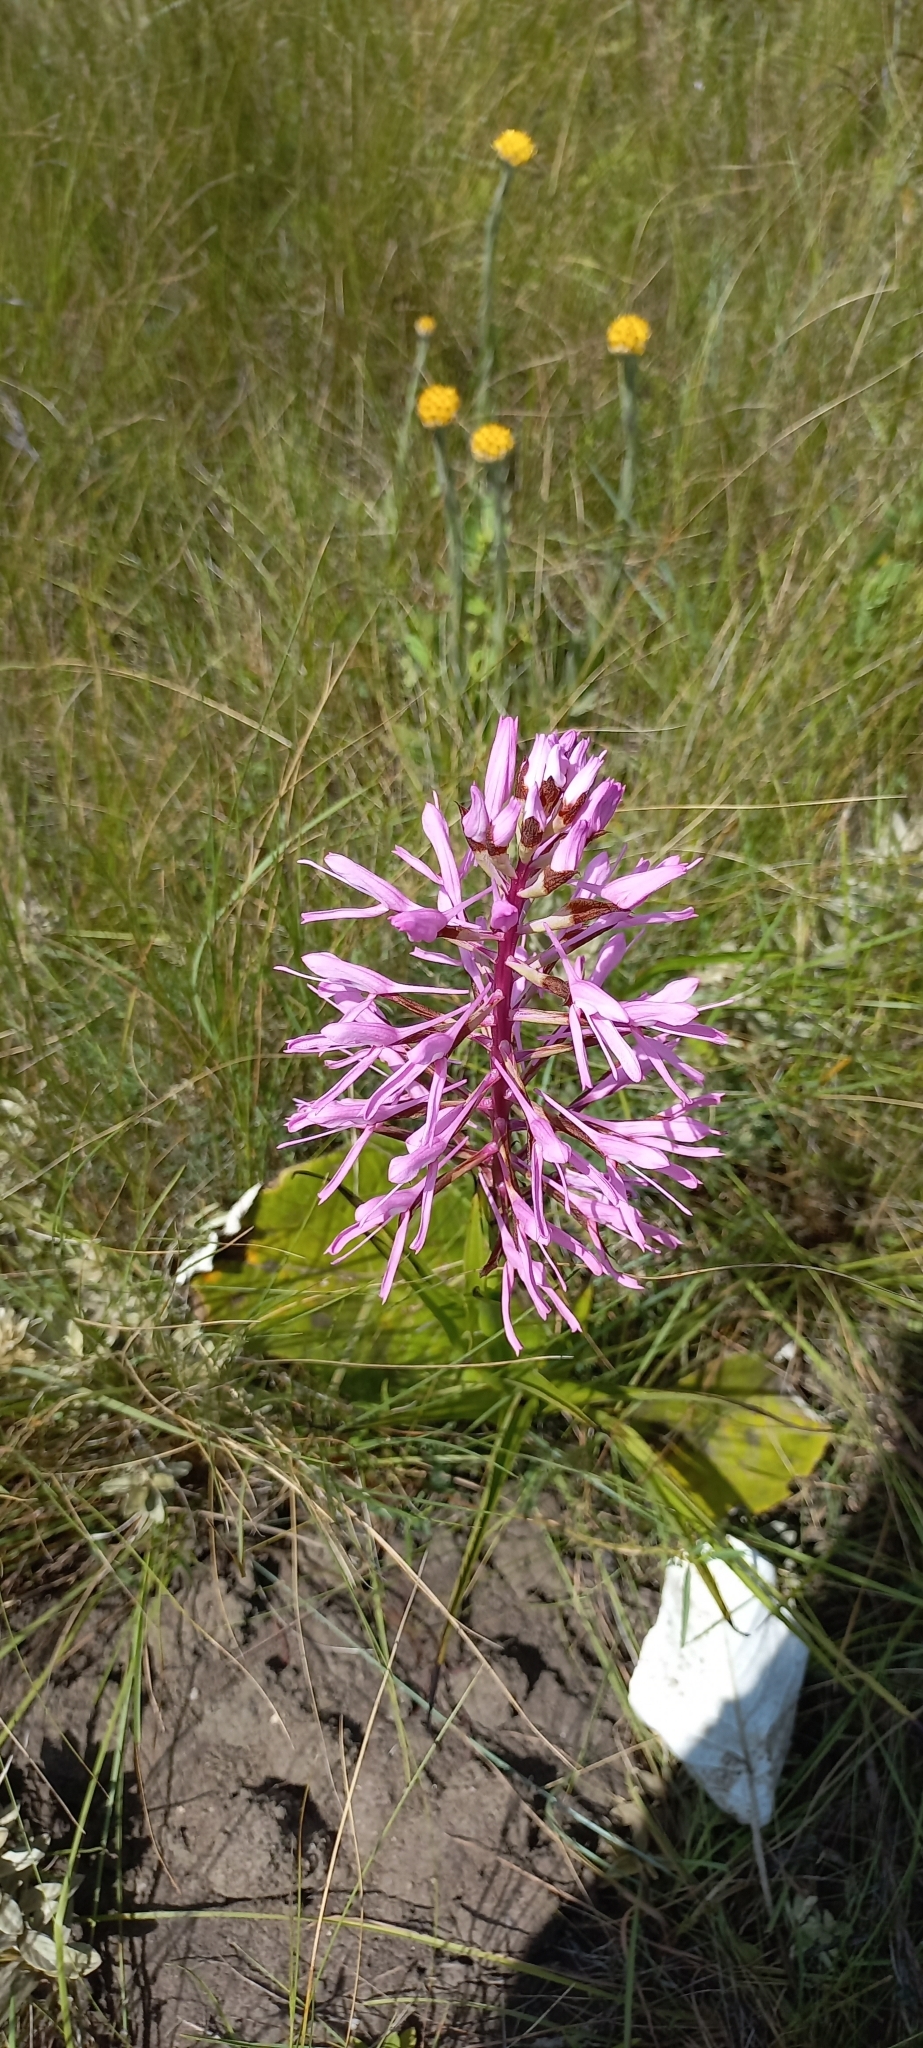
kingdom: Plantae
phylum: Tracheophyta
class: Liliopsida
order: Asparagales
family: Orchidaceae
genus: Disa
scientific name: Disa nervosa
